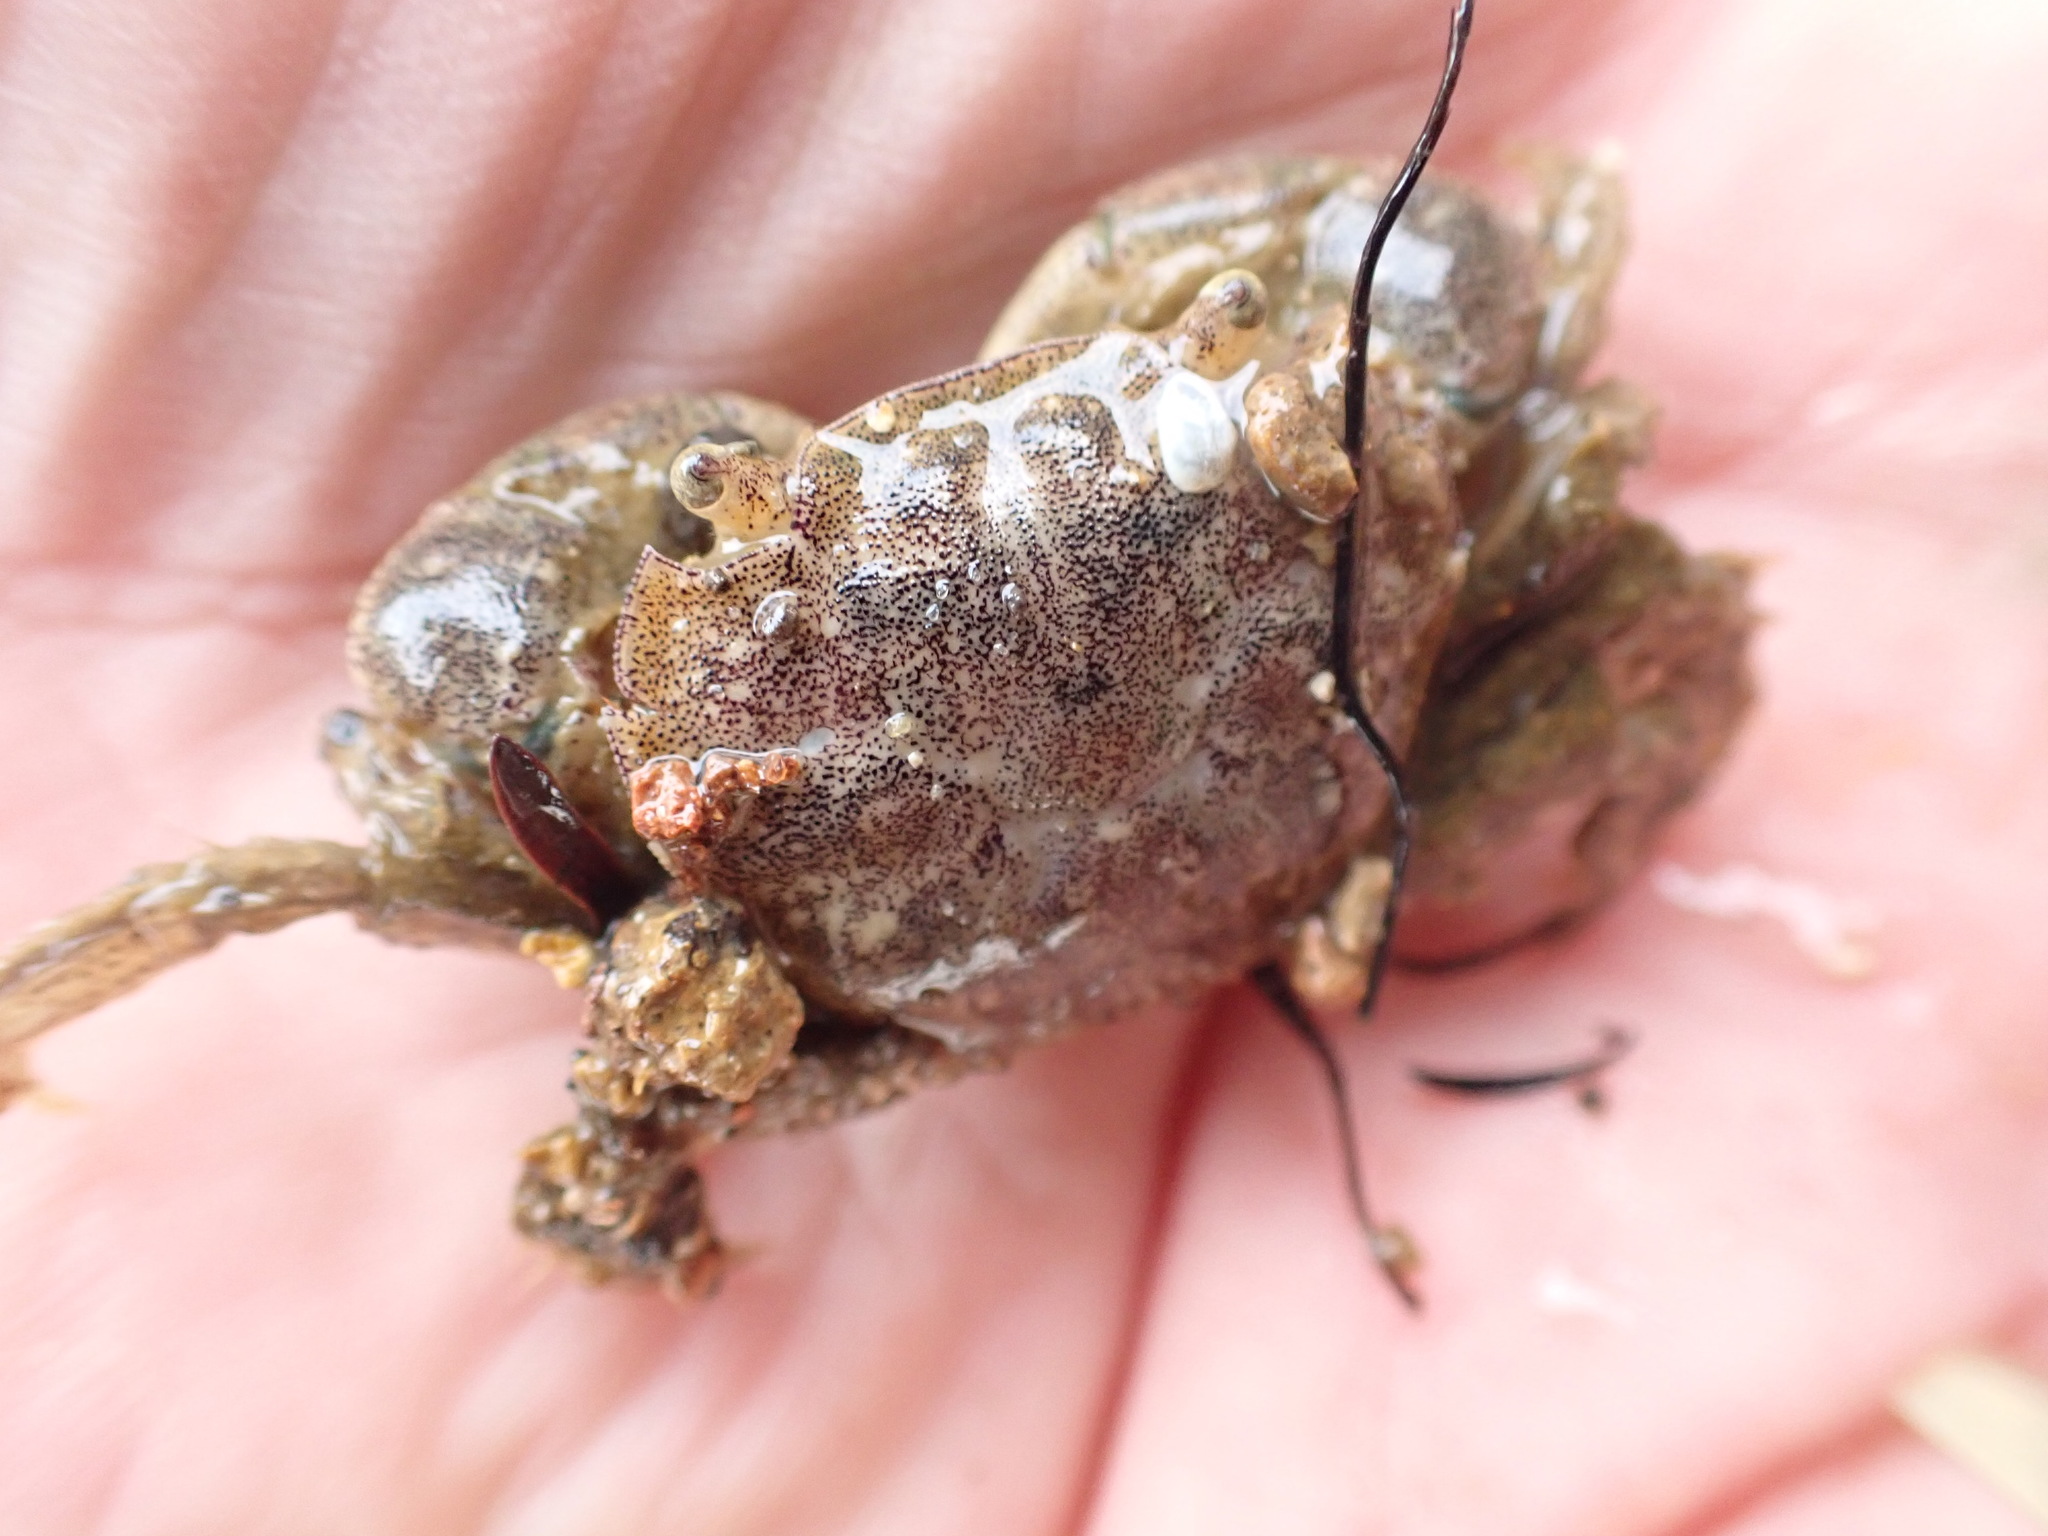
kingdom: Animalia
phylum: Arthropoda
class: Malacostraca
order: Decapoda
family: Varunidae
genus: Hemigrapsus
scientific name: Hemigrapsus crenulatus
